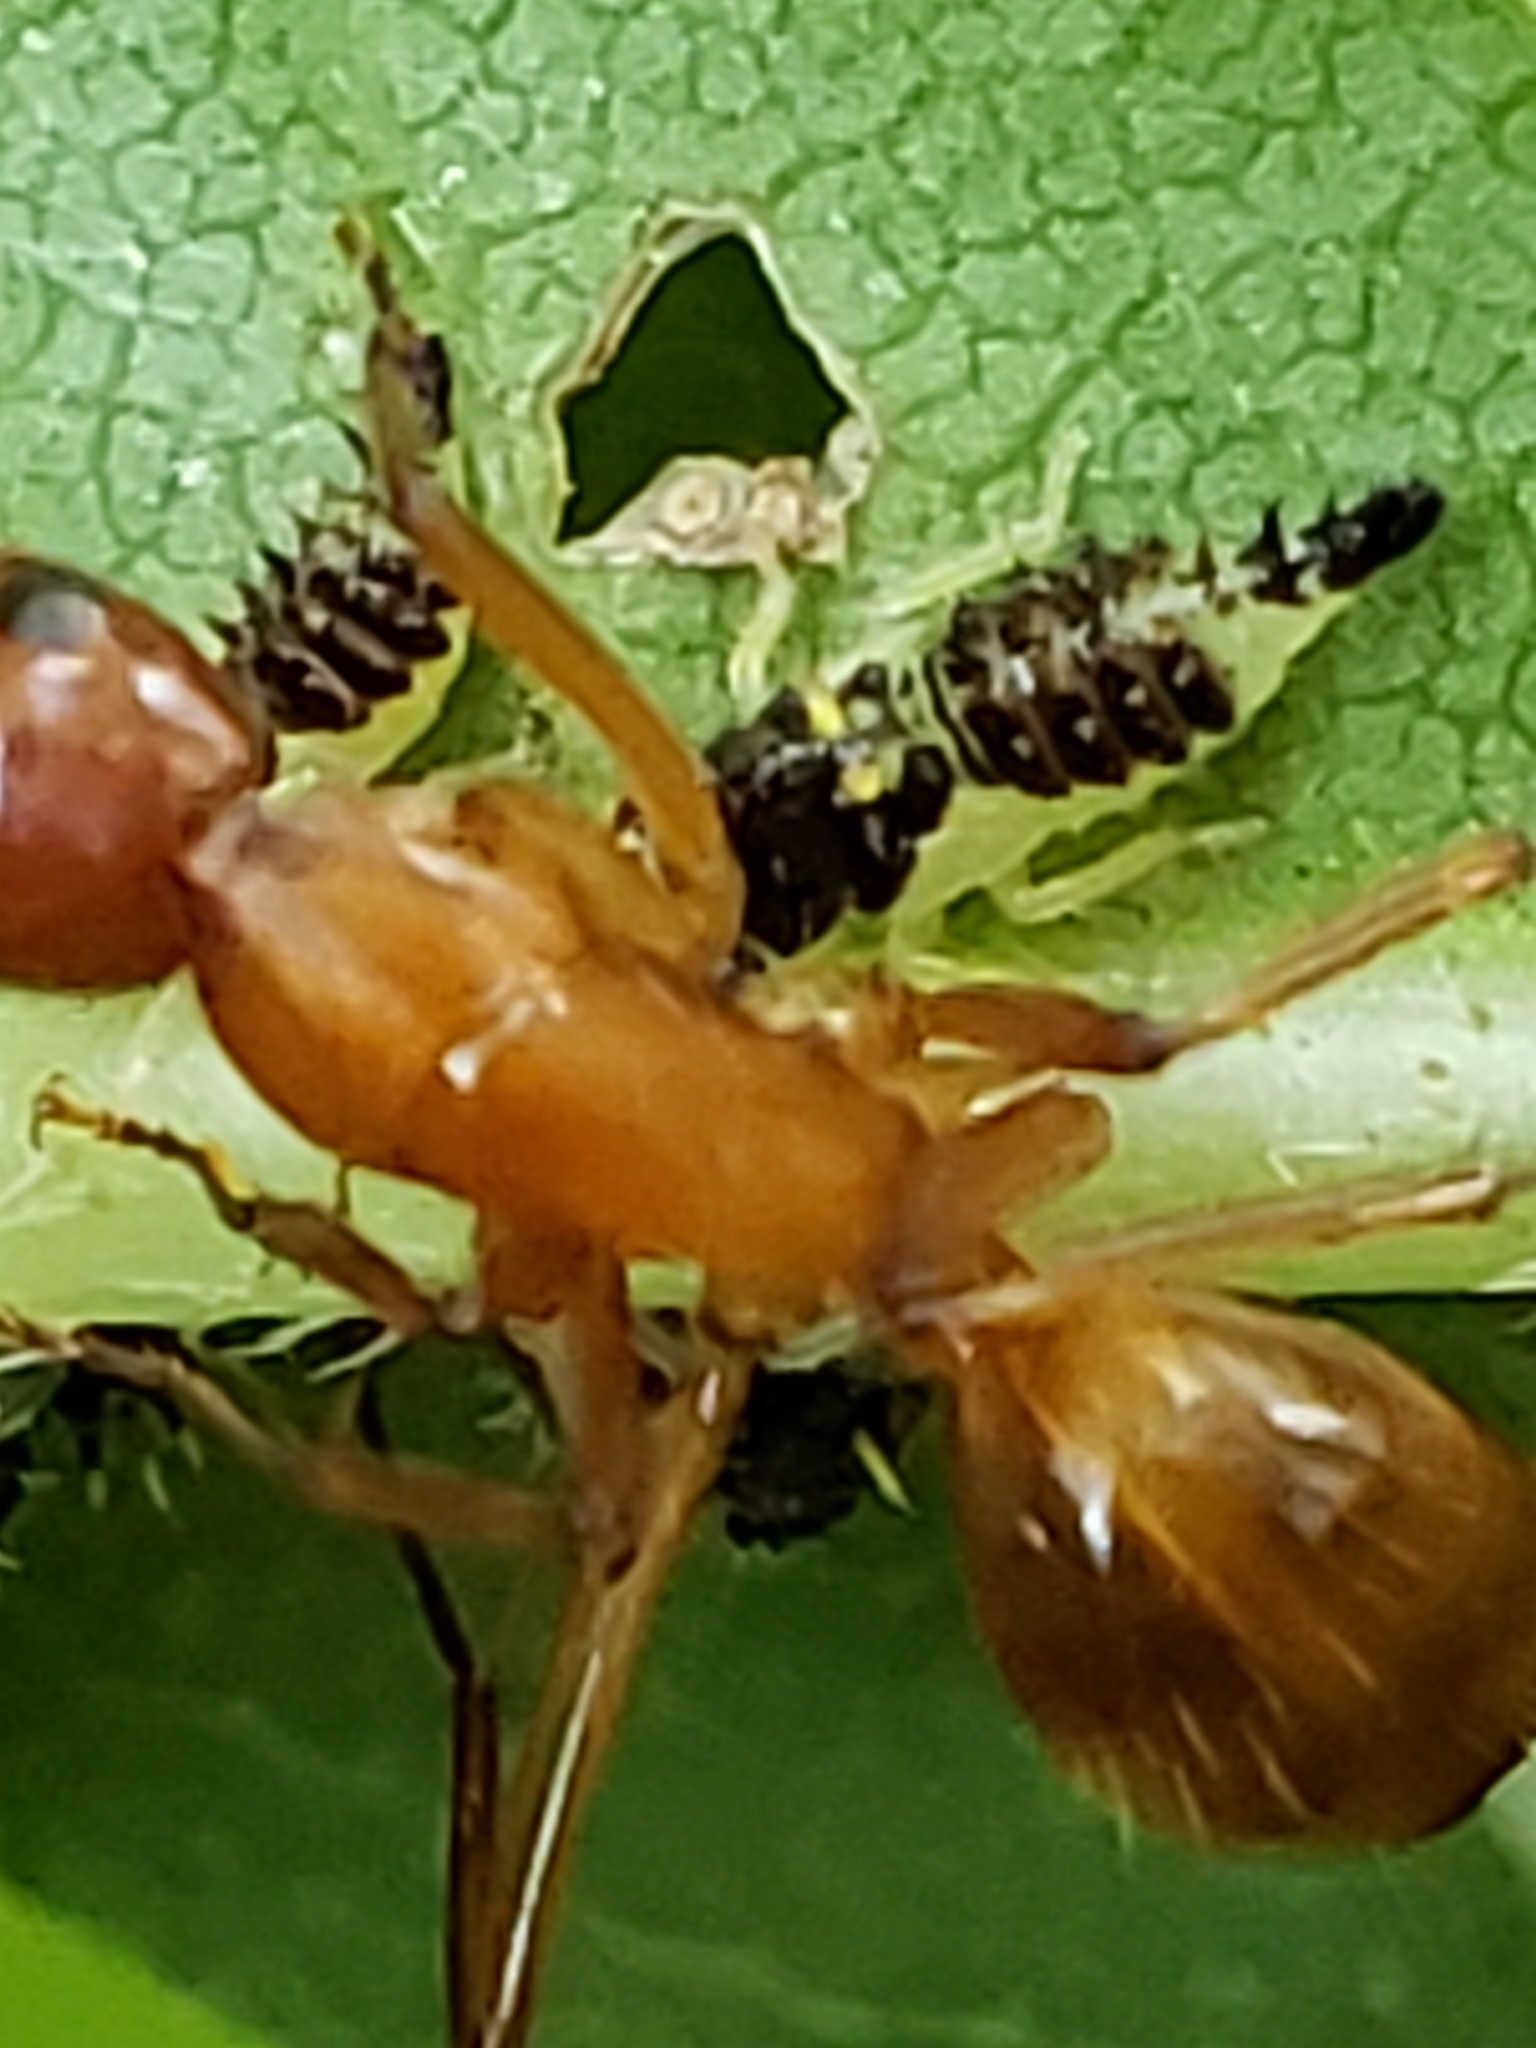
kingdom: Animalia
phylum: Arthropoda
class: Insecta
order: Hymenoptera
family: Formicidae
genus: Camponotus
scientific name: Camponotus castaneus
